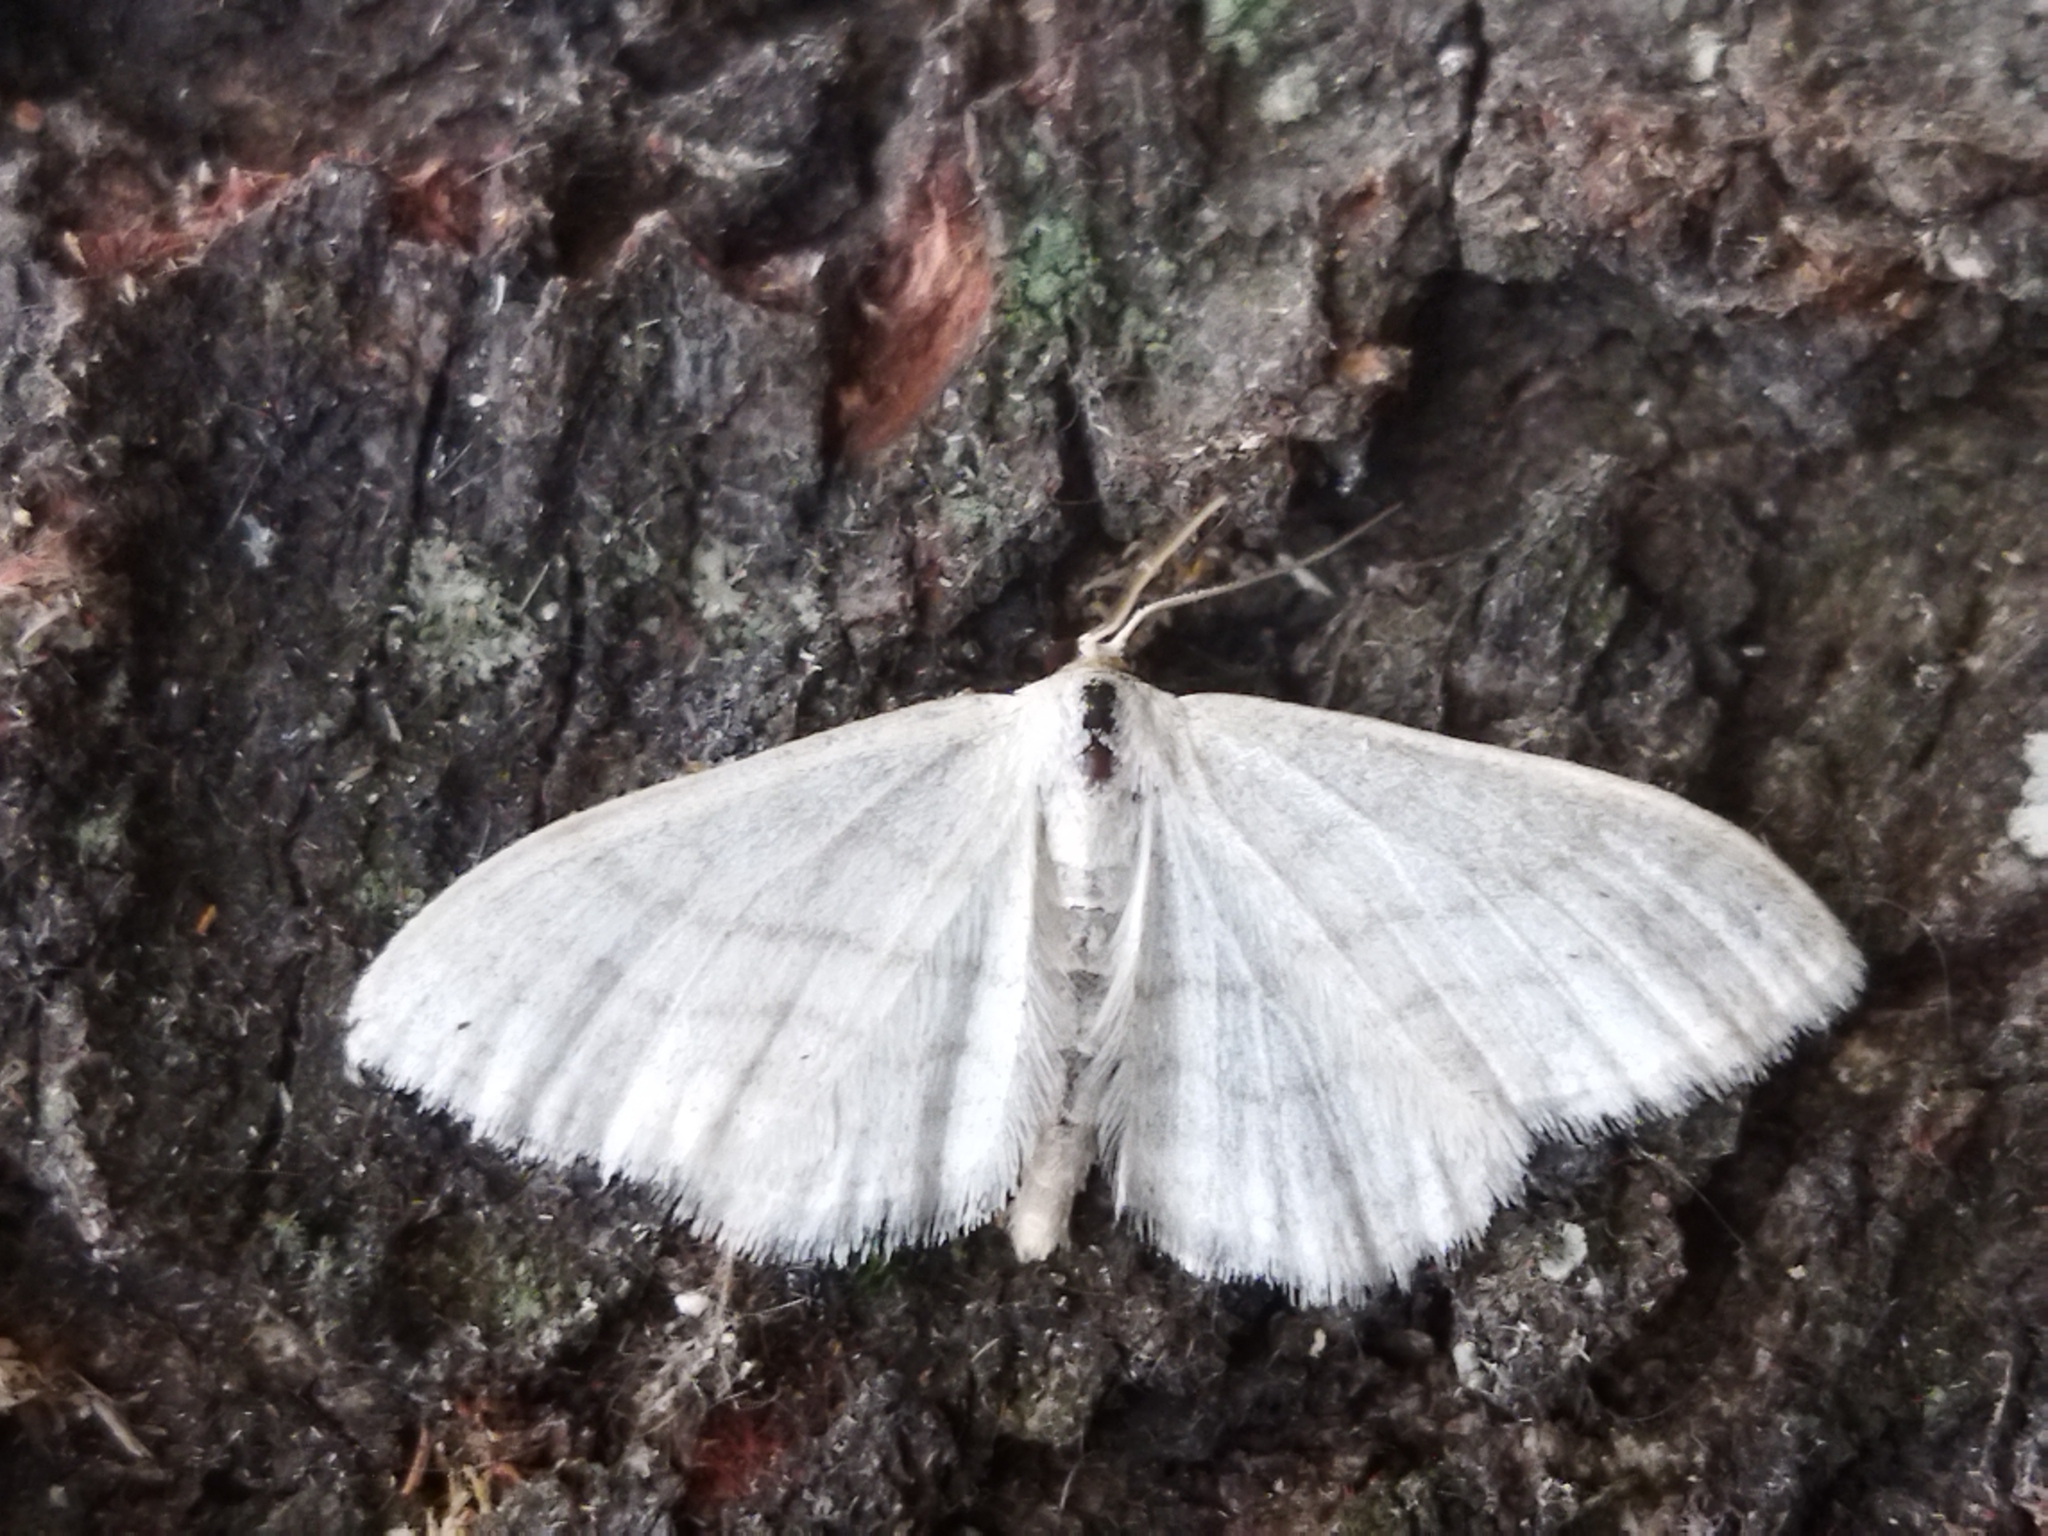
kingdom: Animalia
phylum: Arthropoda
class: Insecta
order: Lepidoptera
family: Geometridae
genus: Idaea
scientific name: Idaea subsericeata
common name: Satin wave
